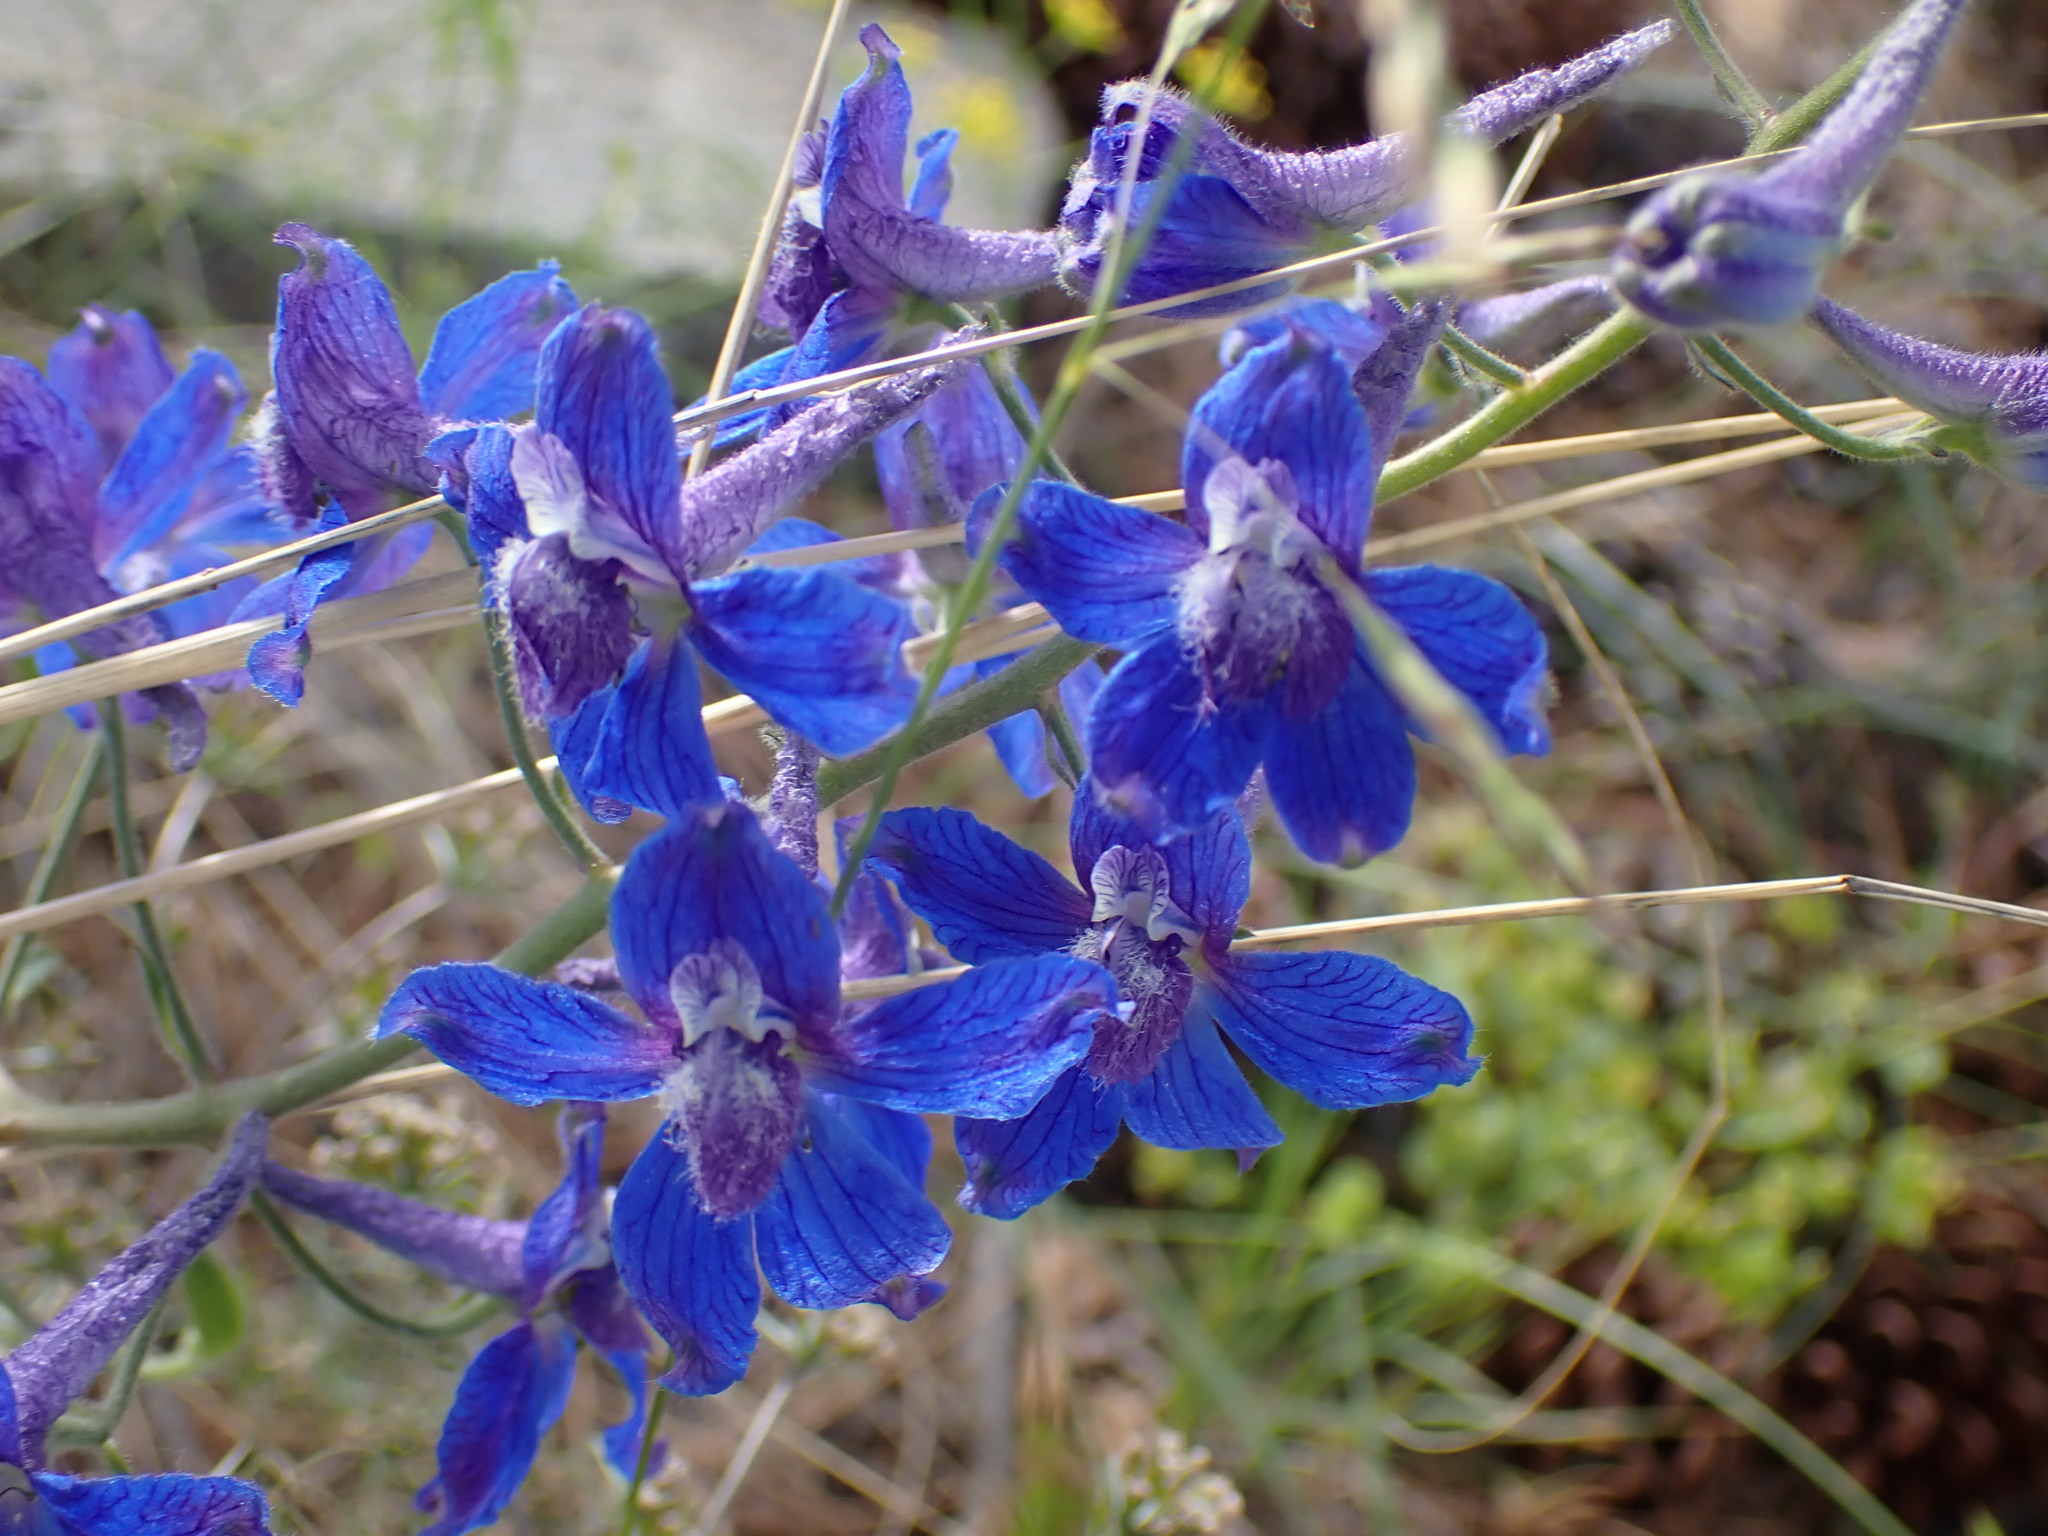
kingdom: Plantae
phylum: Tracheophyta
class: Magnoliopsida
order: Ranunculales
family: Ranunculaceae
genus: Delphinium
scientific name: Delphinium nuttallianum
